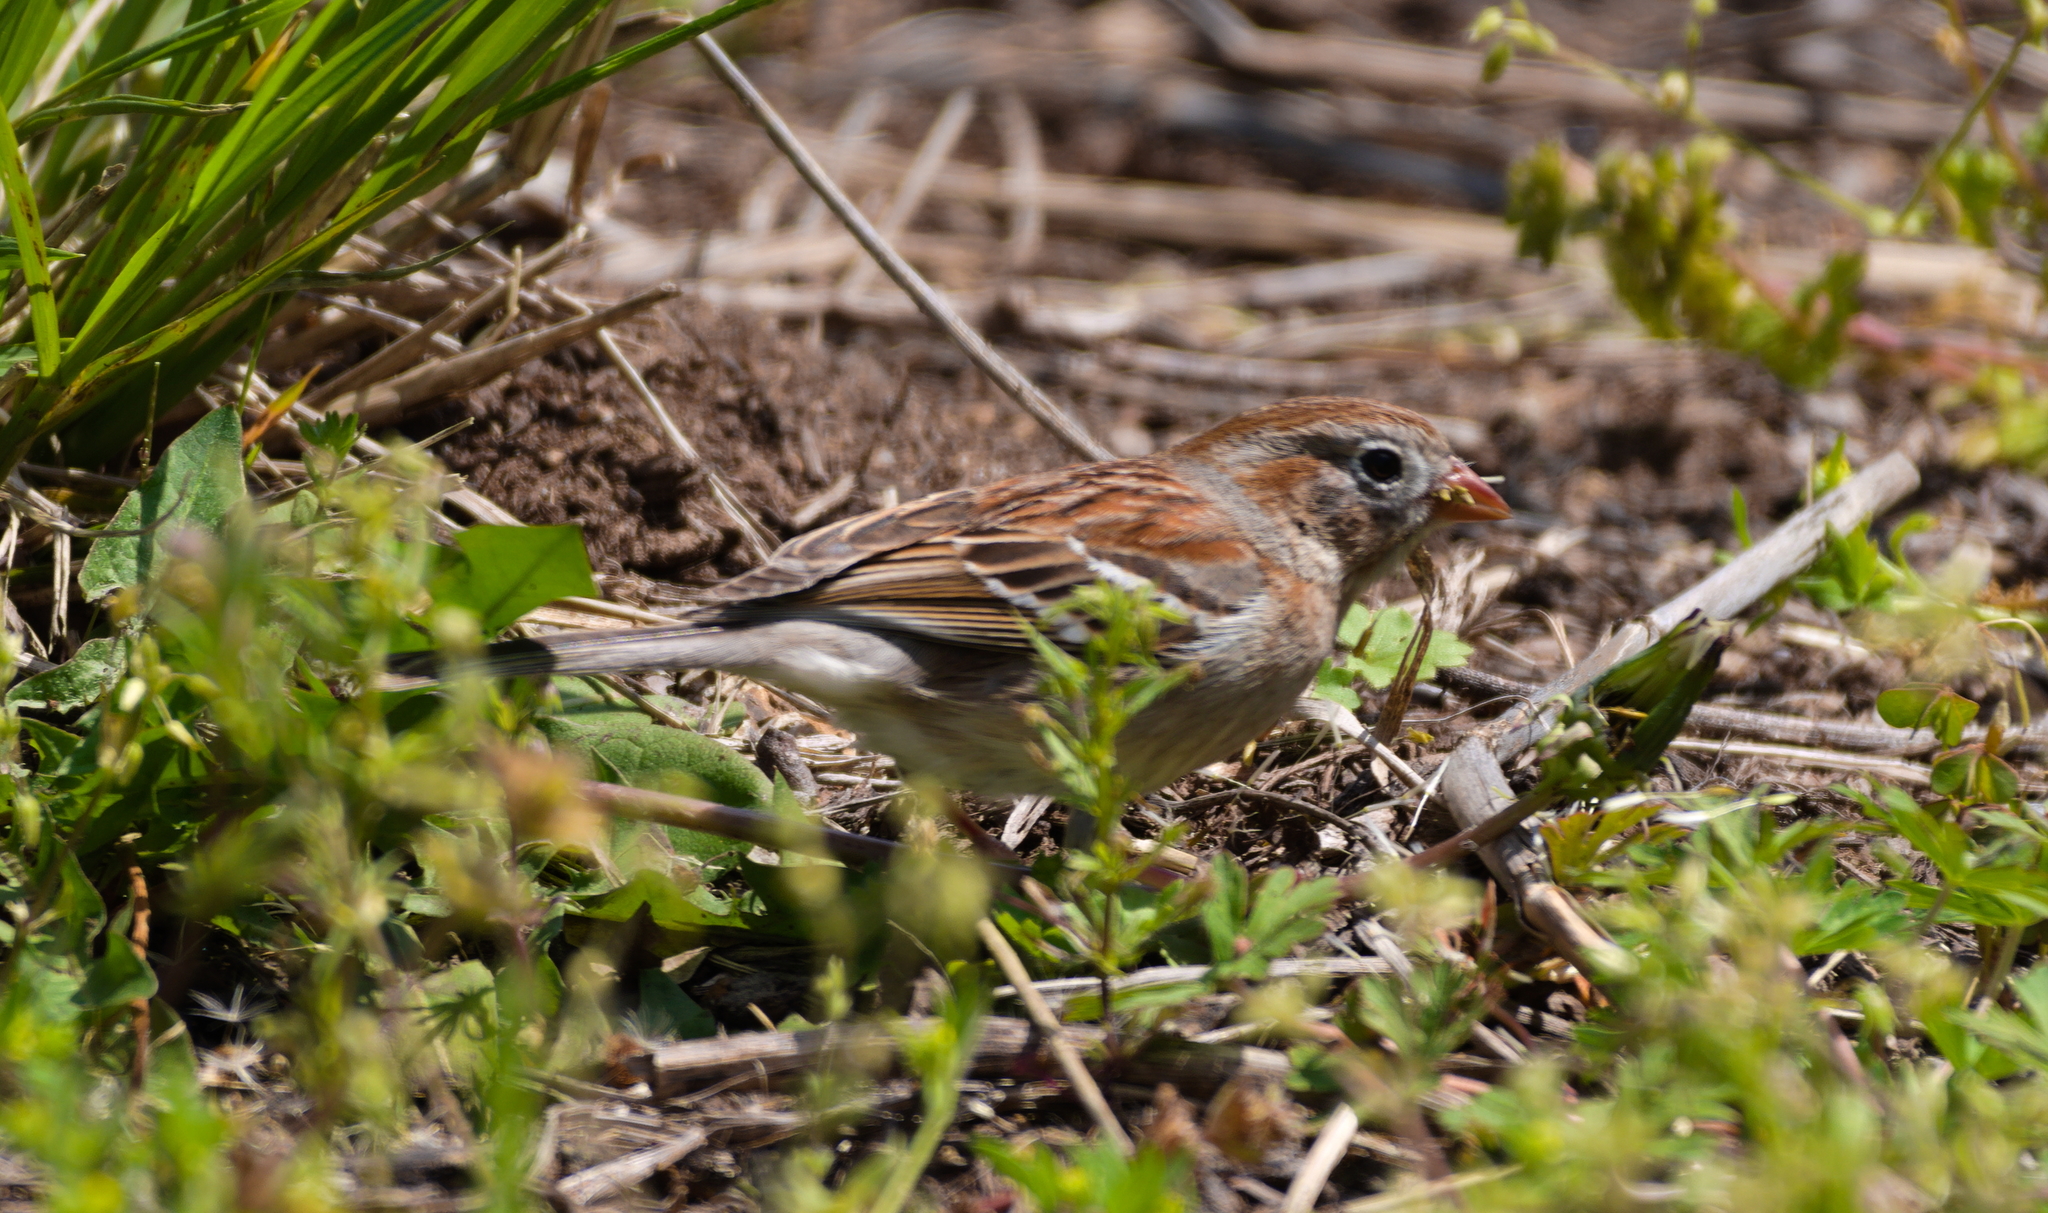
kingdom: Animalia
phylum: Chordata
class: Aves
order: Passeriformes
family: Passerellidae
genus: Spizella
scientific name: Spizella pusilla
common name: Field sparrow
